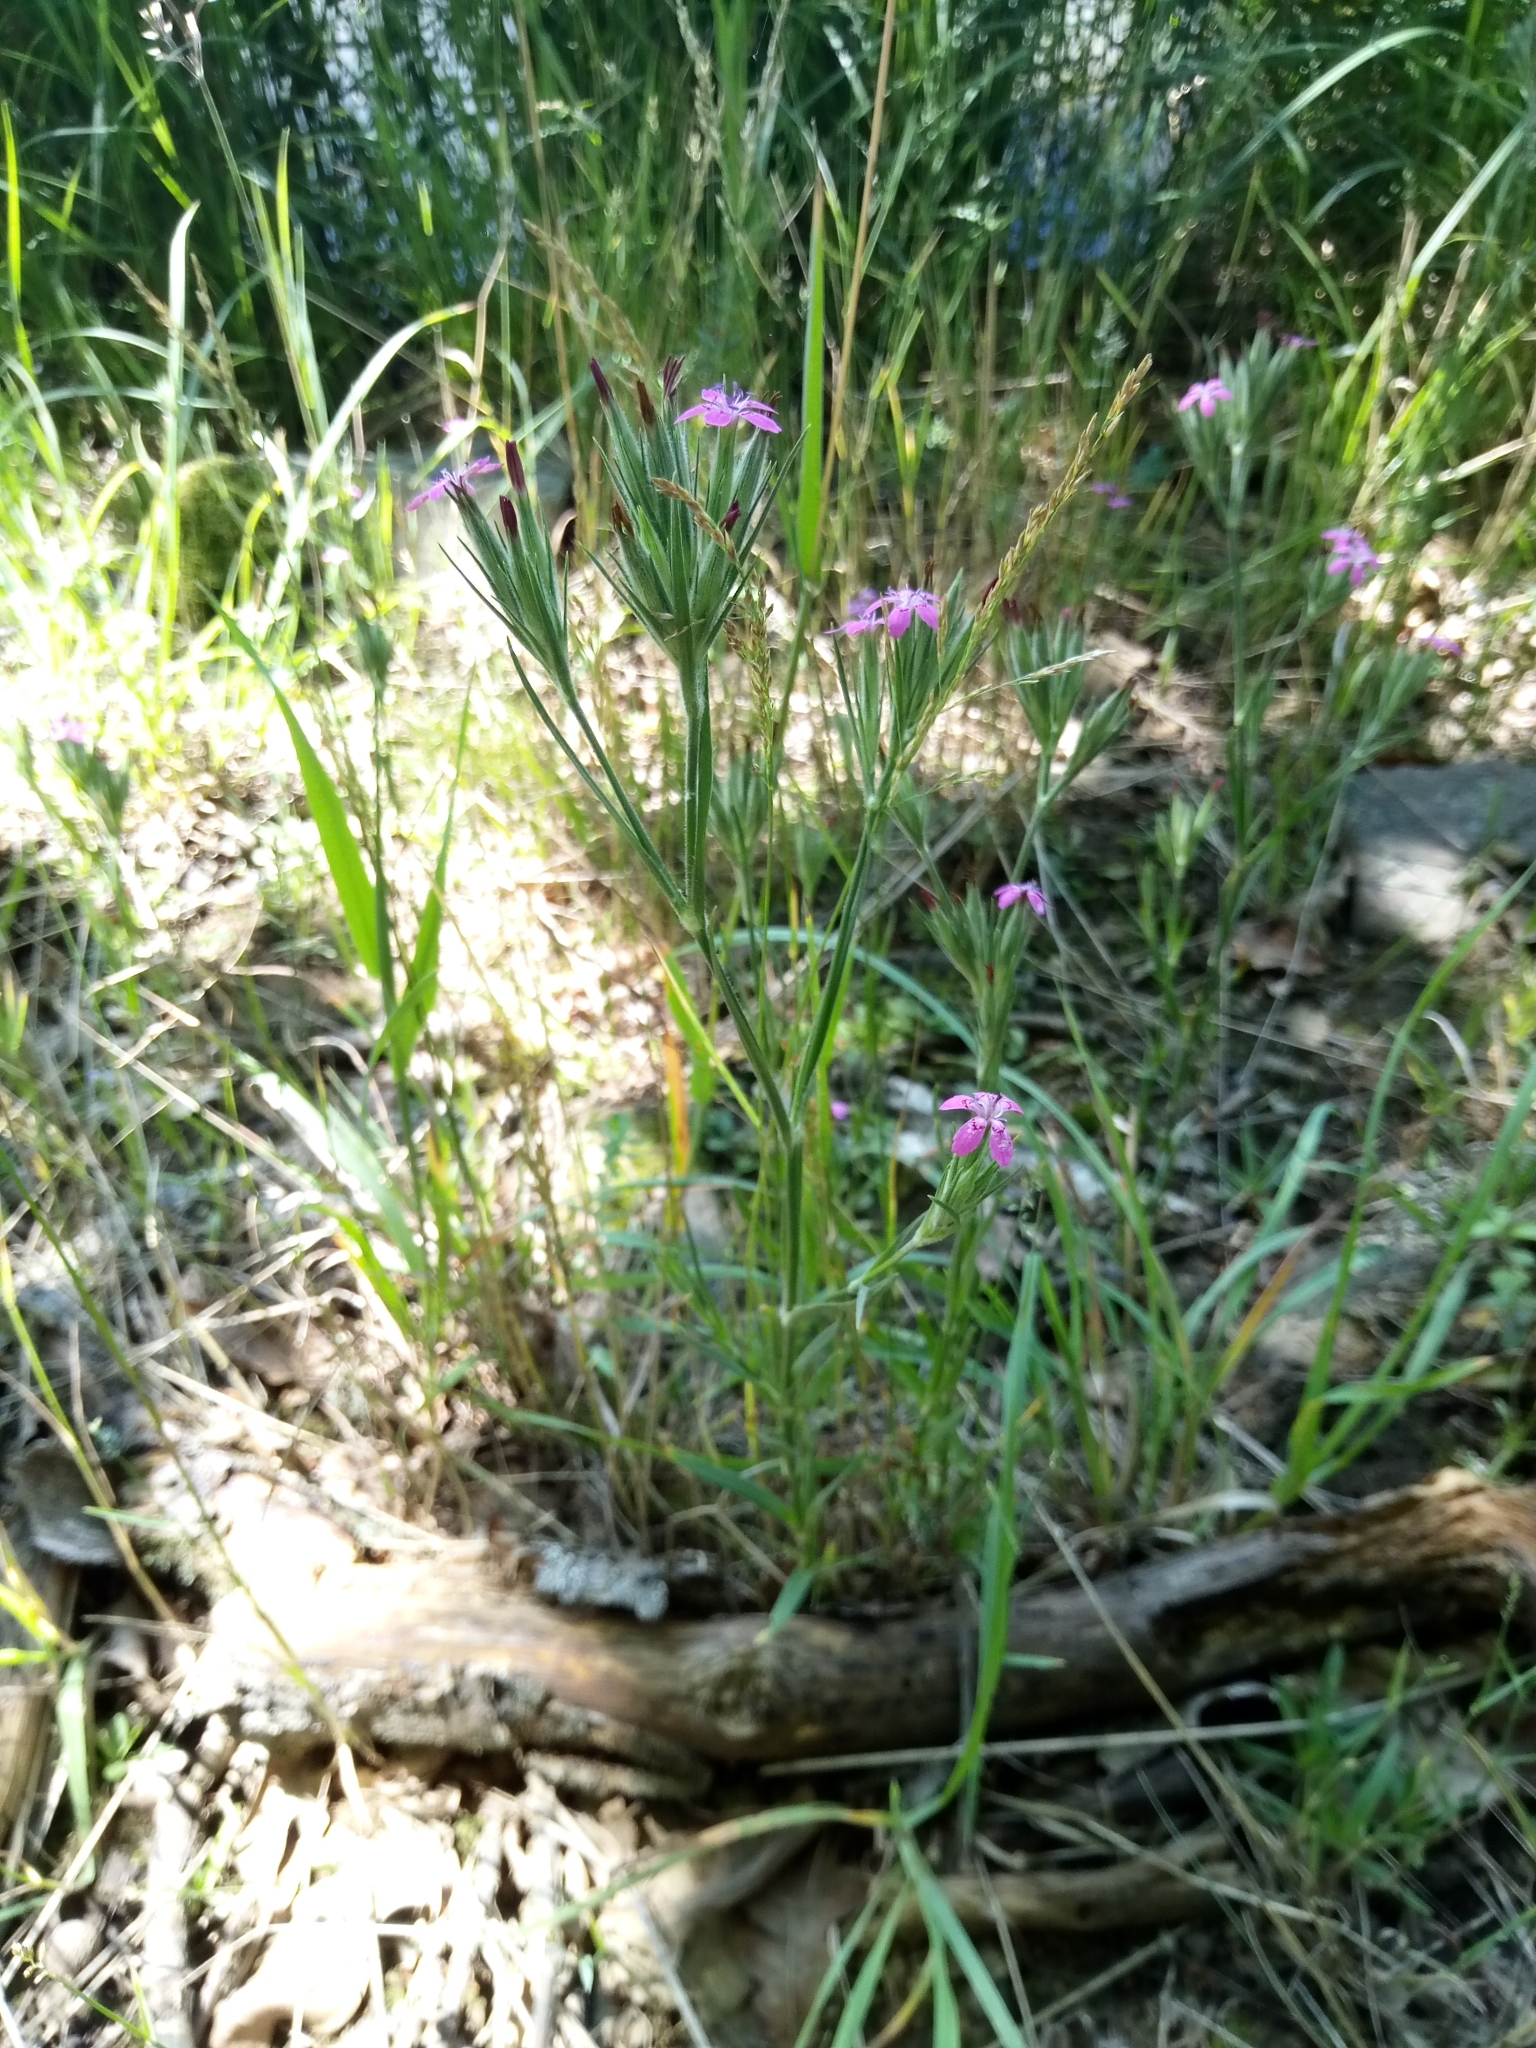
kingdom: Plantae
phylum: Tracheophyta
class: Magnoliopsida
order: Caryophyllales
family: Caryophyllaceae
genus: Dianthus
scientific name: Dianthus armeria
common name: Deptford pink
